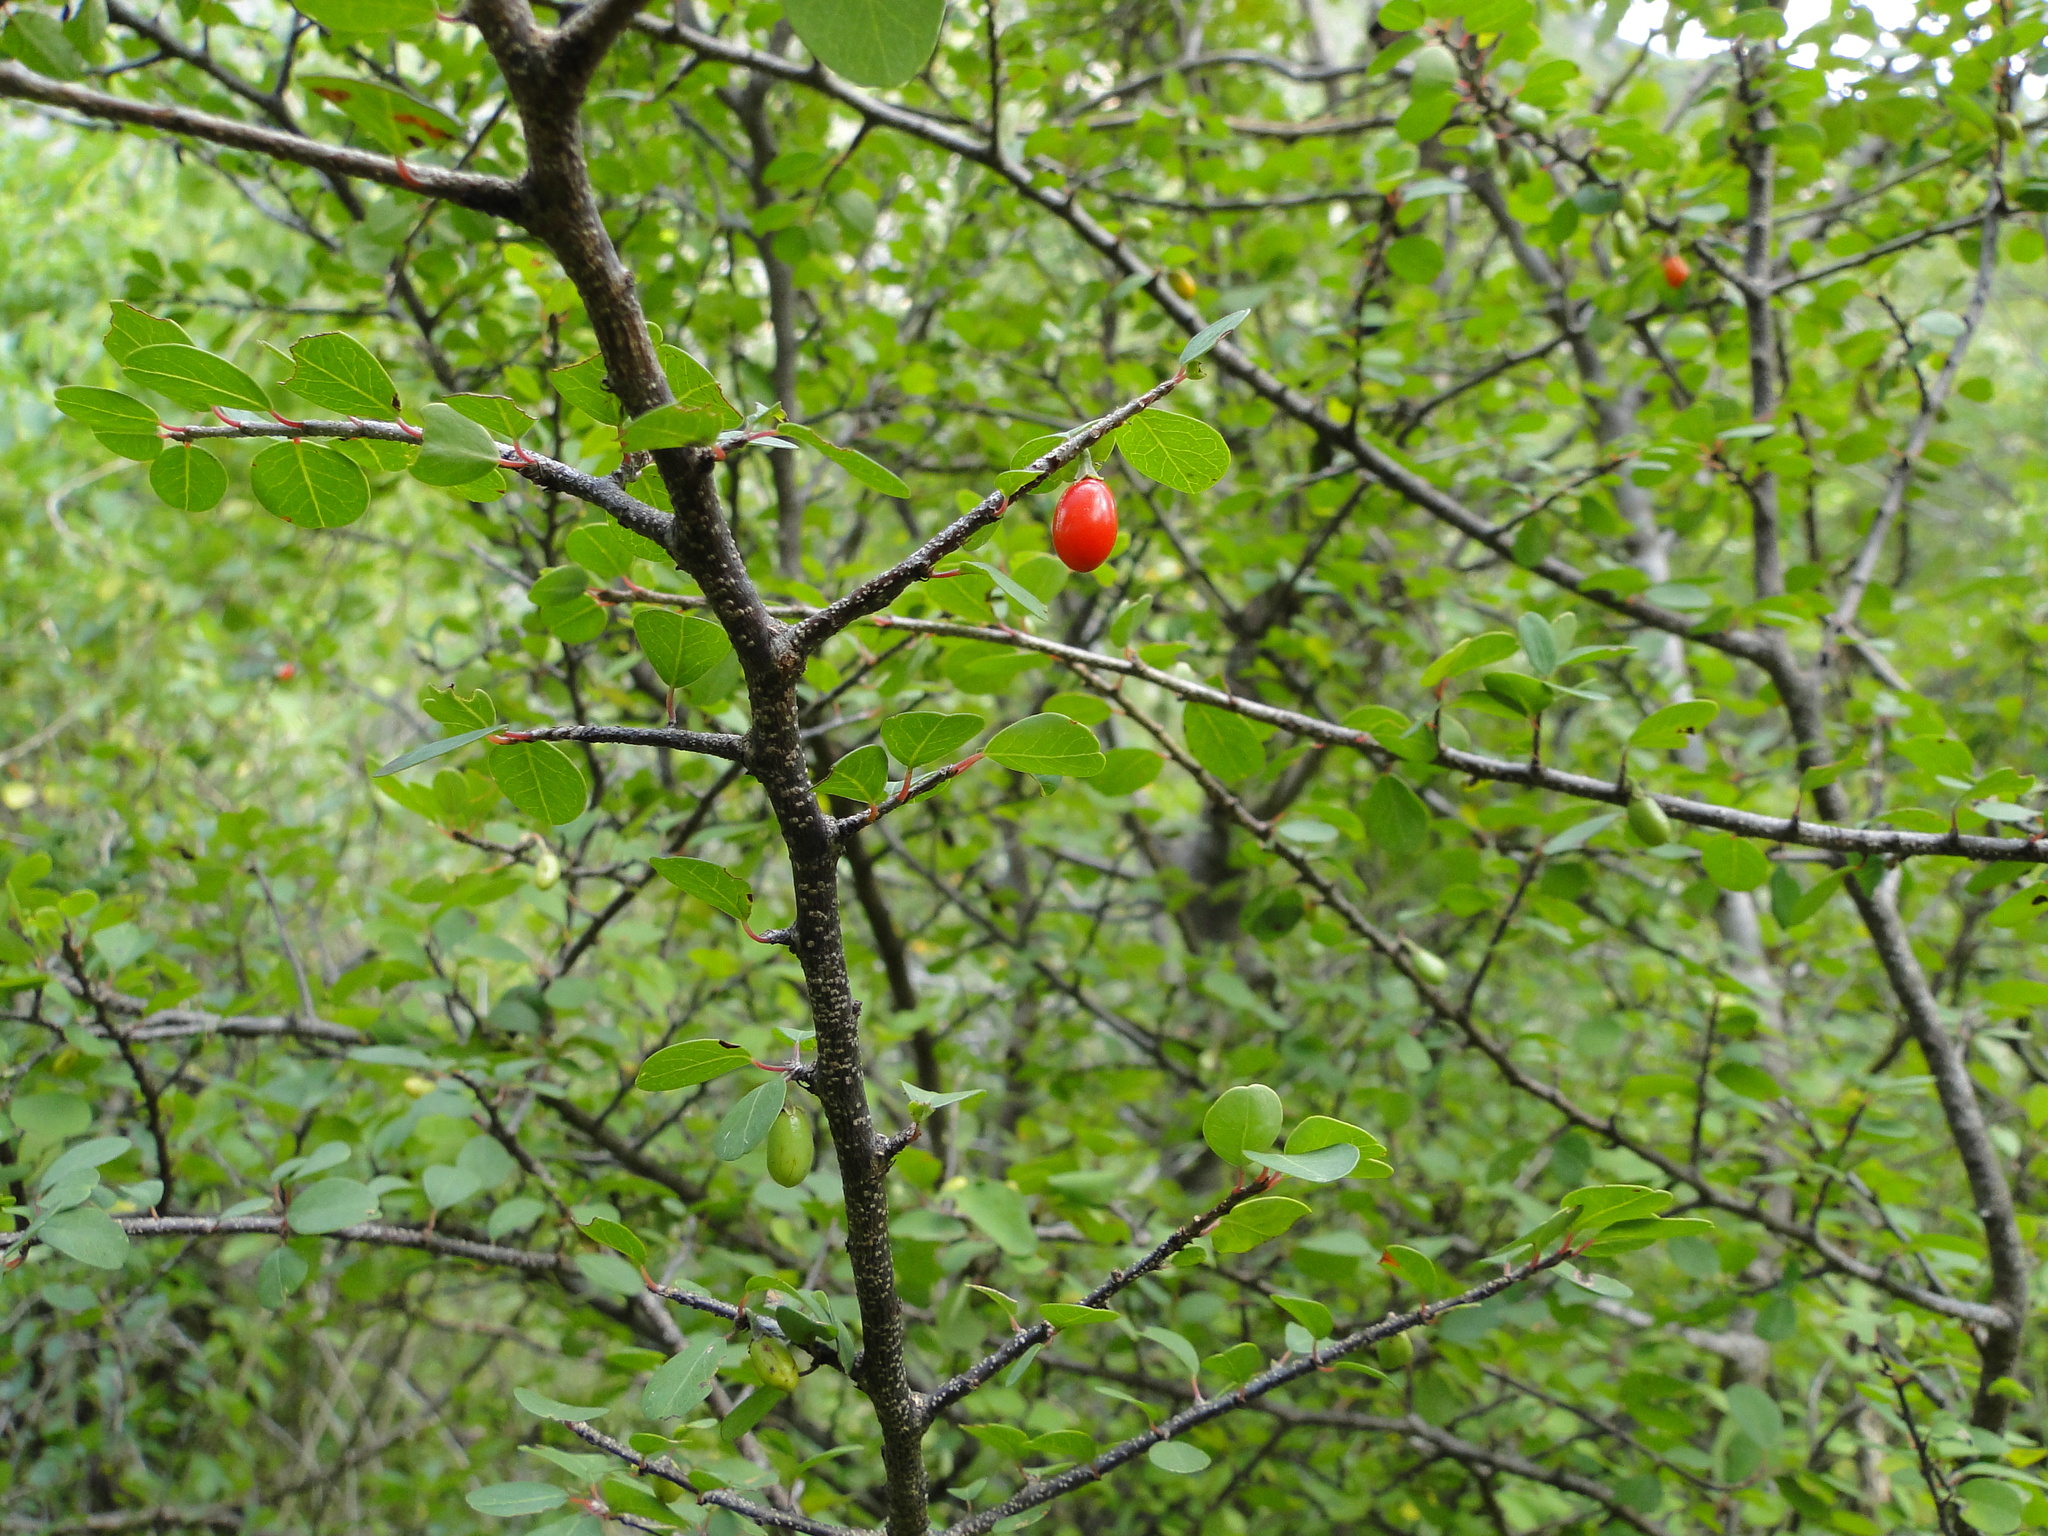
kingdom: Plantae
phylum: Tracheophyta
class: Magnoliopsida
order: Malpighiales
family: Erythroxylaceae
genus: Erythroxylum
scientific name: Erythroxylum rotundifolium
